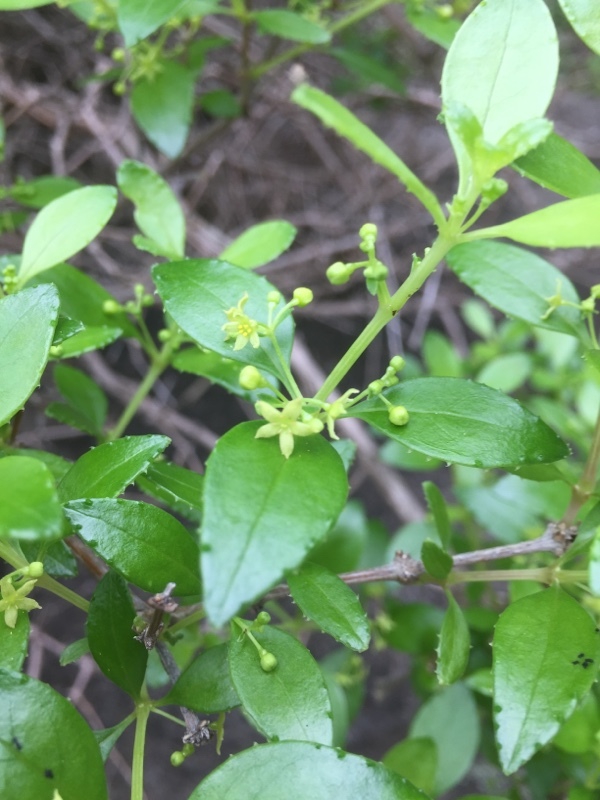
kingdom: Plantae
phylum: Tracheophyta
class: Magnoliopsida
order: Gentianales
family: Rubiaceae
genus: Rubia
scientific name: Rubia fruticosa
